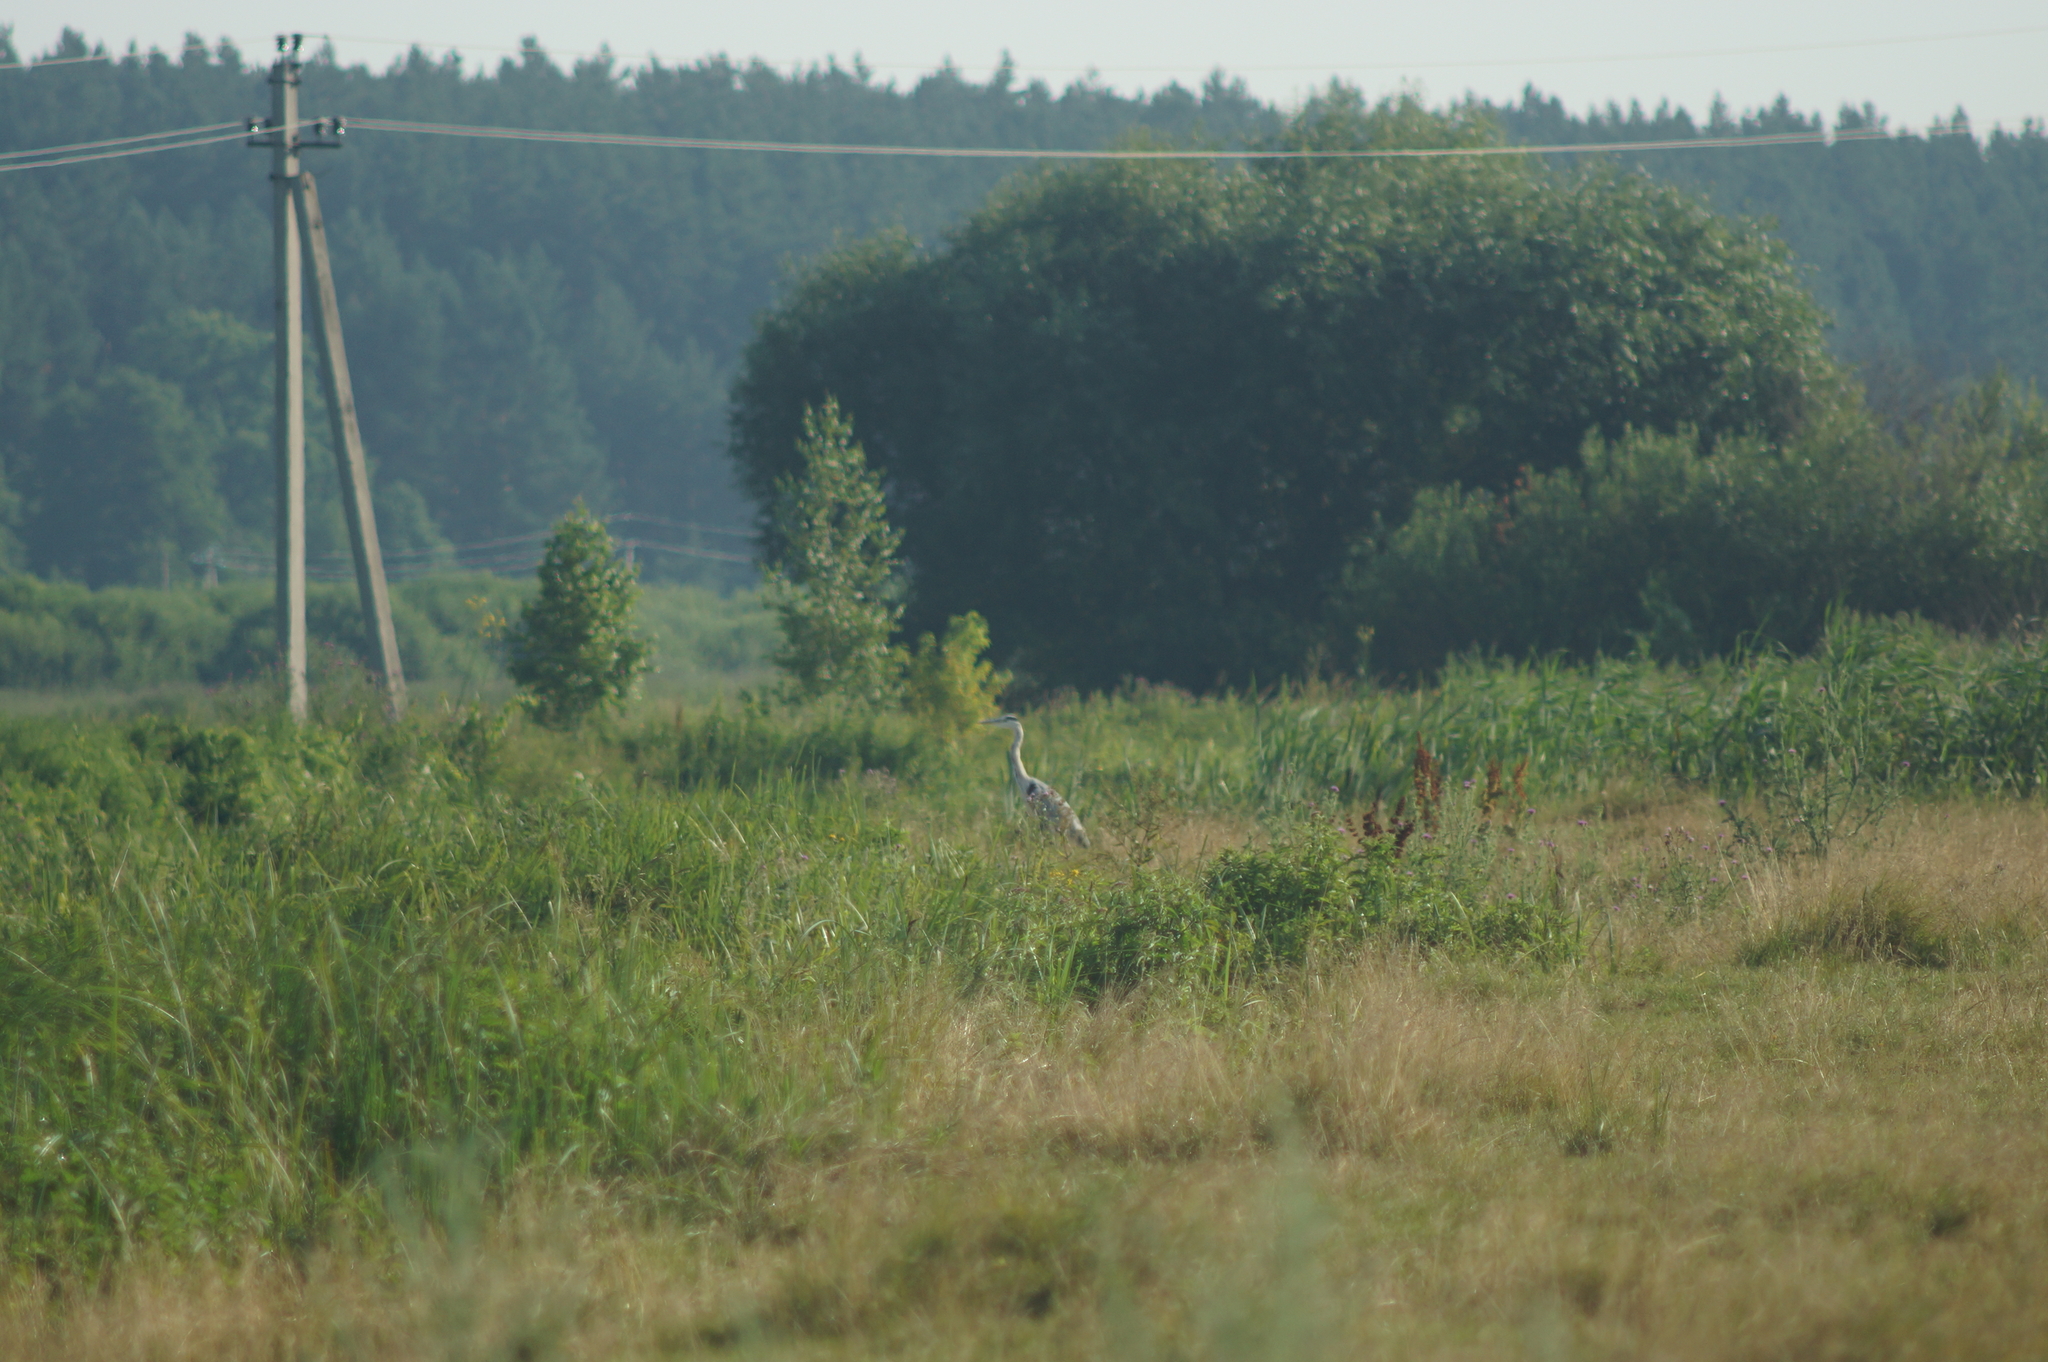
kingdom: Animalia
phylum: Chordata
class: Aves
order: Pelecaniformes
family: Ardeidae
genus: Ardea
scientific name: Ardea cinerea
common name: Grey heron
